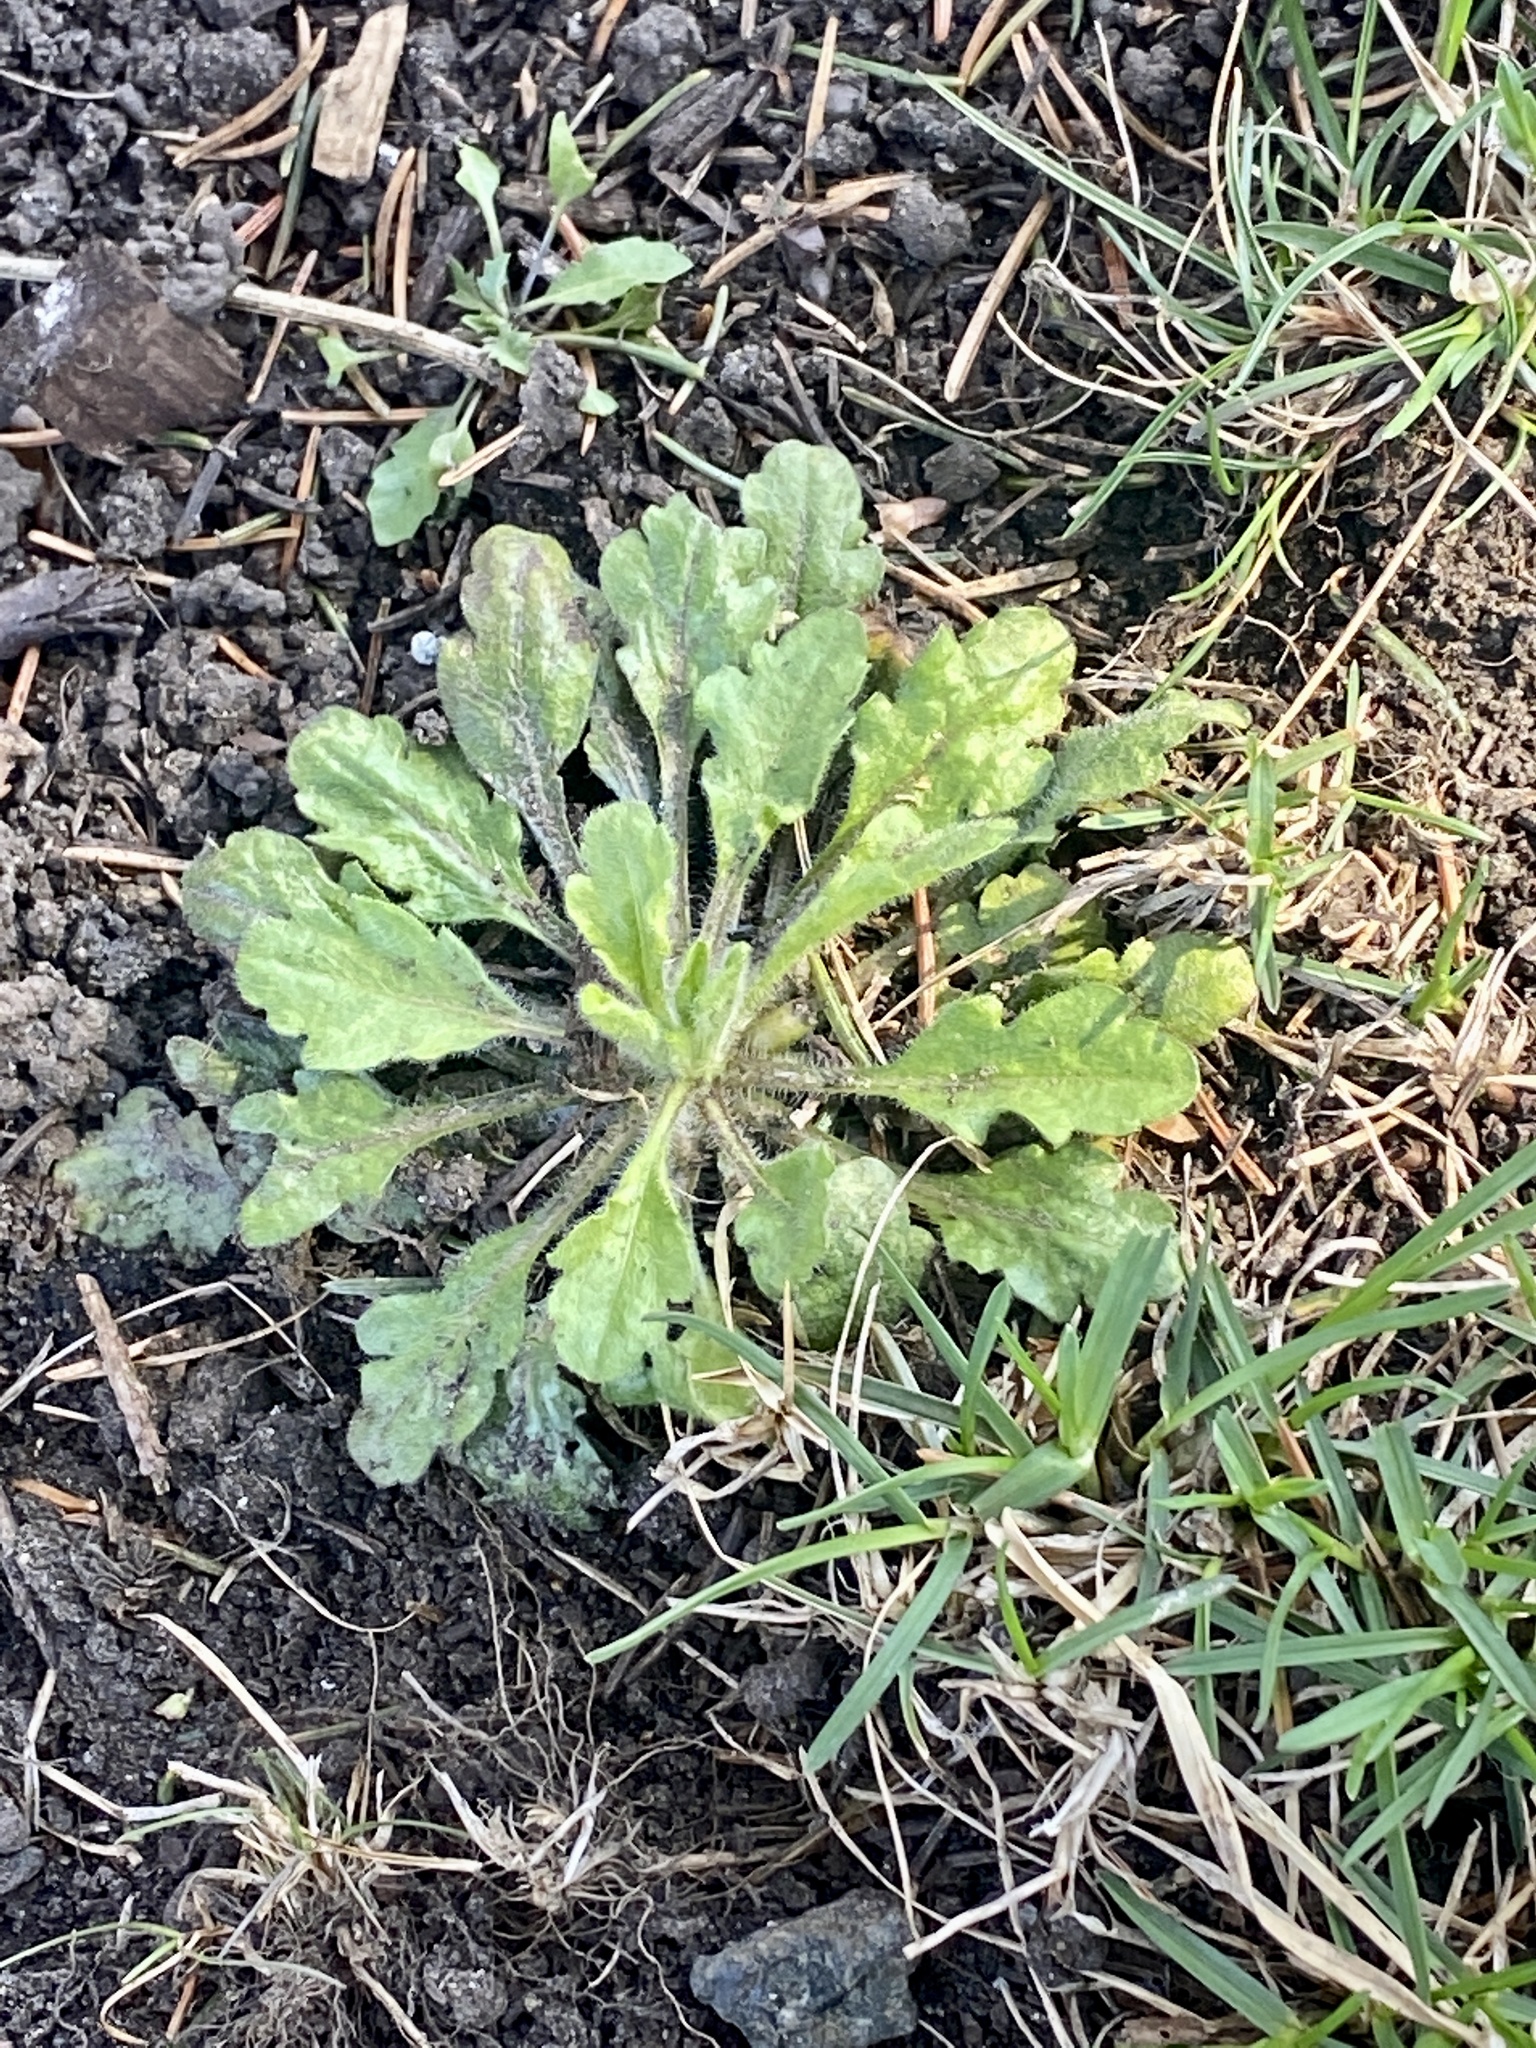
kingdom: Plantae
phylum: Tracheophyta
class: Magnoliopsida
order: Asterales
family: Asteraceae
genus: Erigeron
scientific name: Erigeron canadensis
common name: Canadian fleabane
